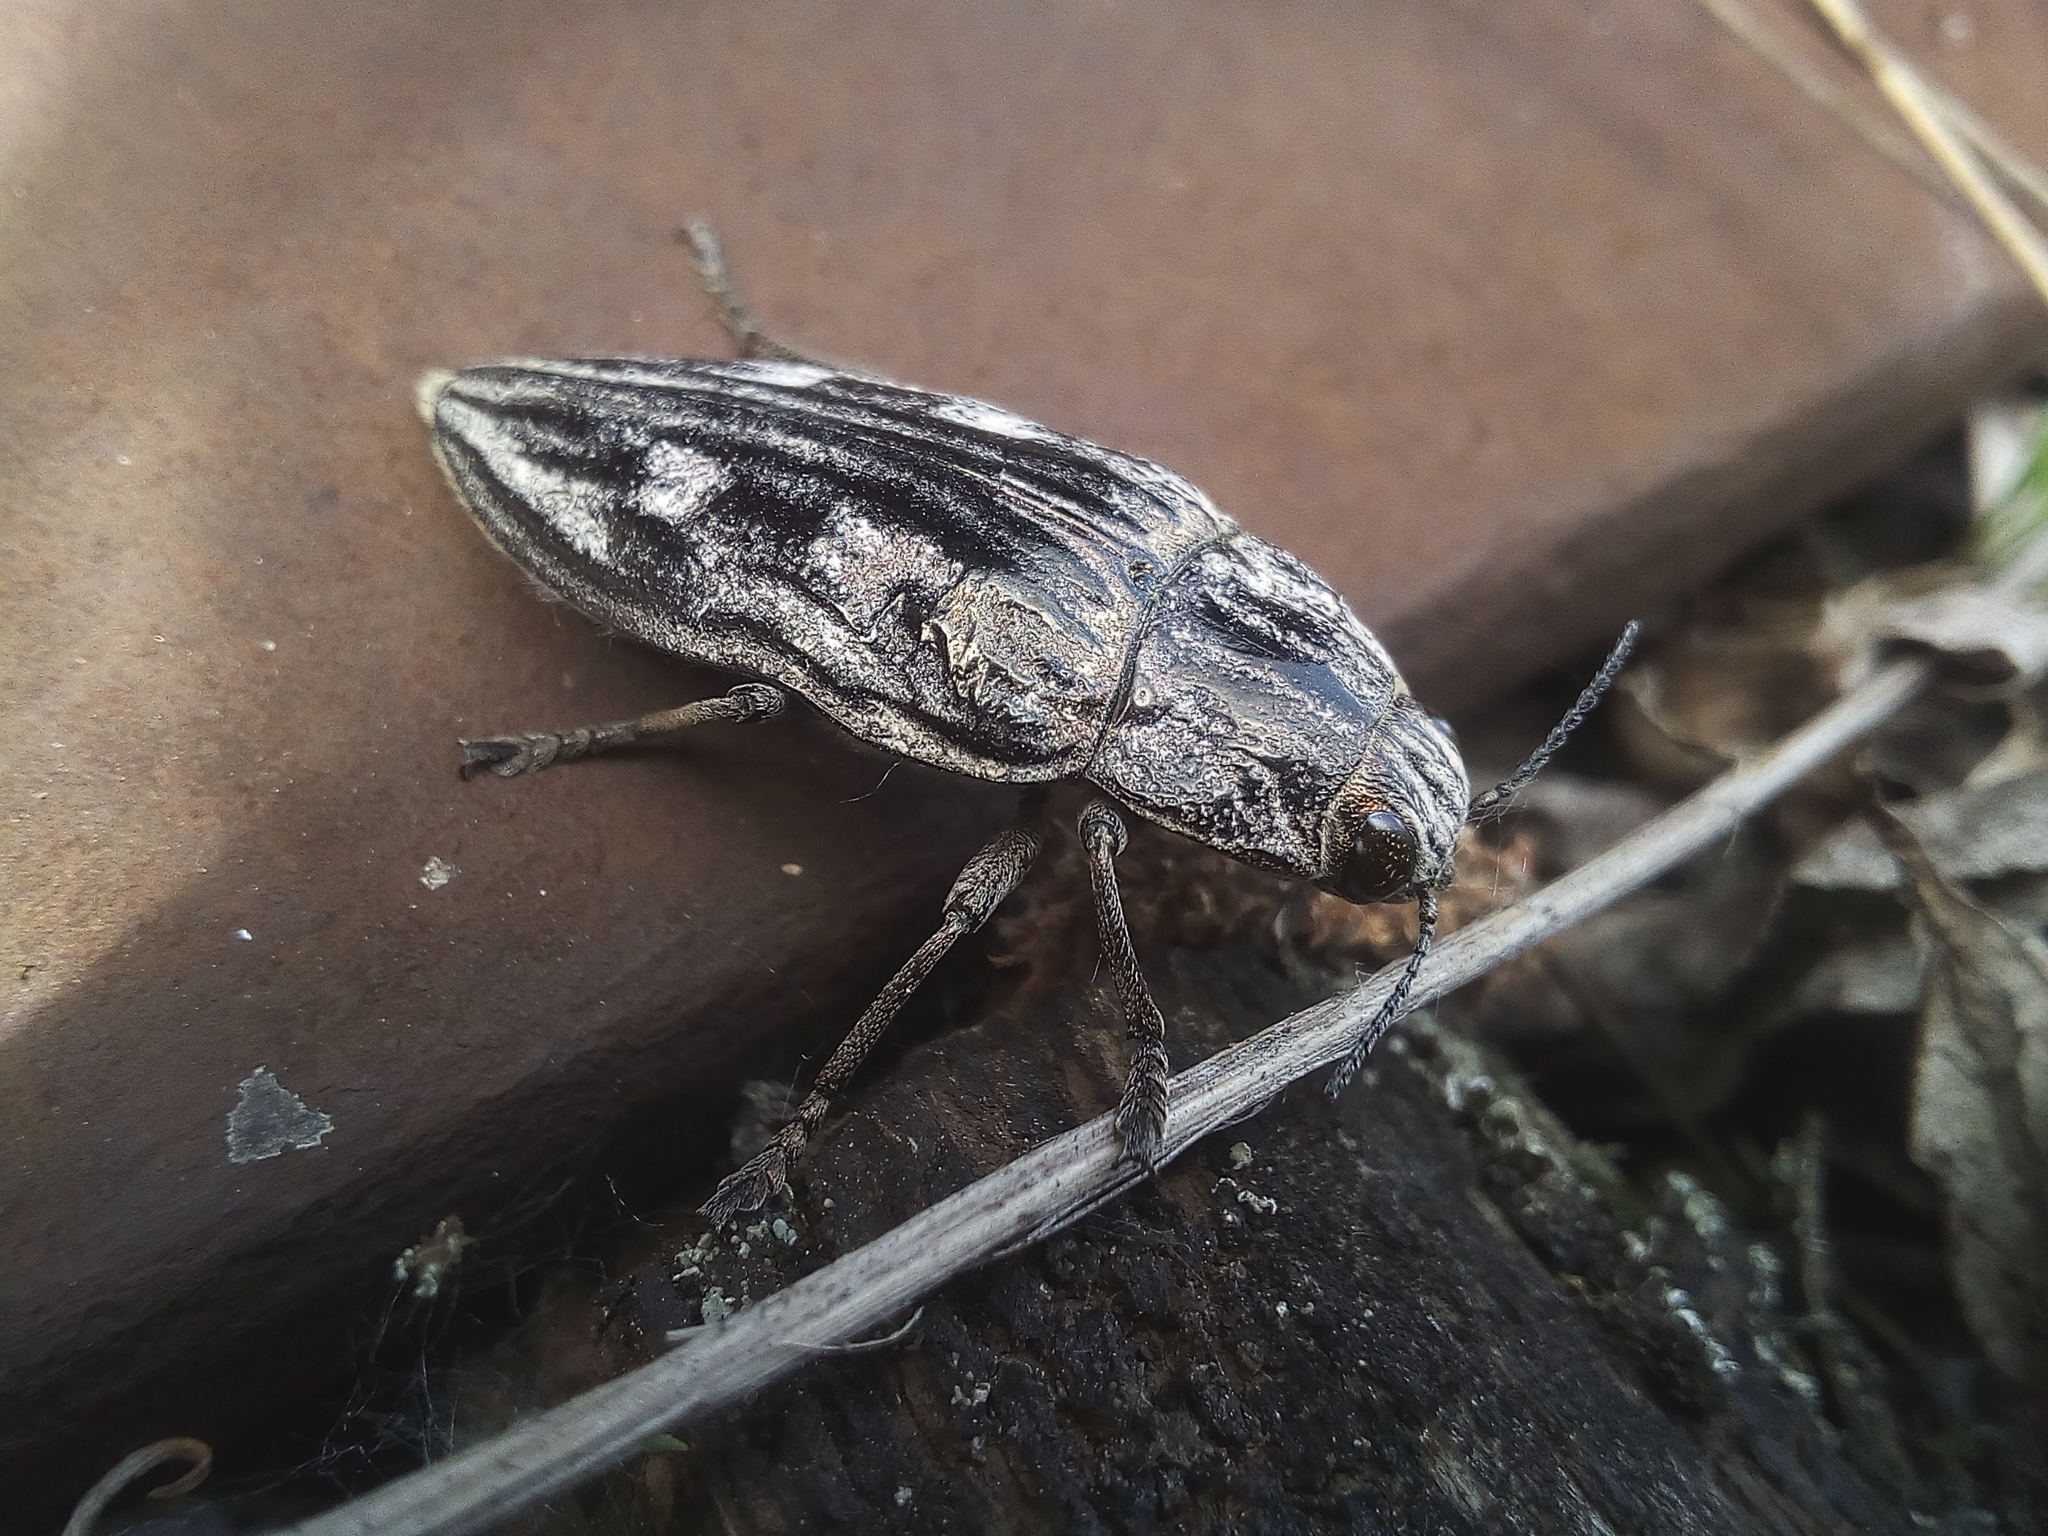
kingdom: Animalia
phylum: Arthropoda
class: Insecta
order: Coleoptera
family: Buprestidae
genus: Chalcophora
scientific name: Chalcophora mariana
